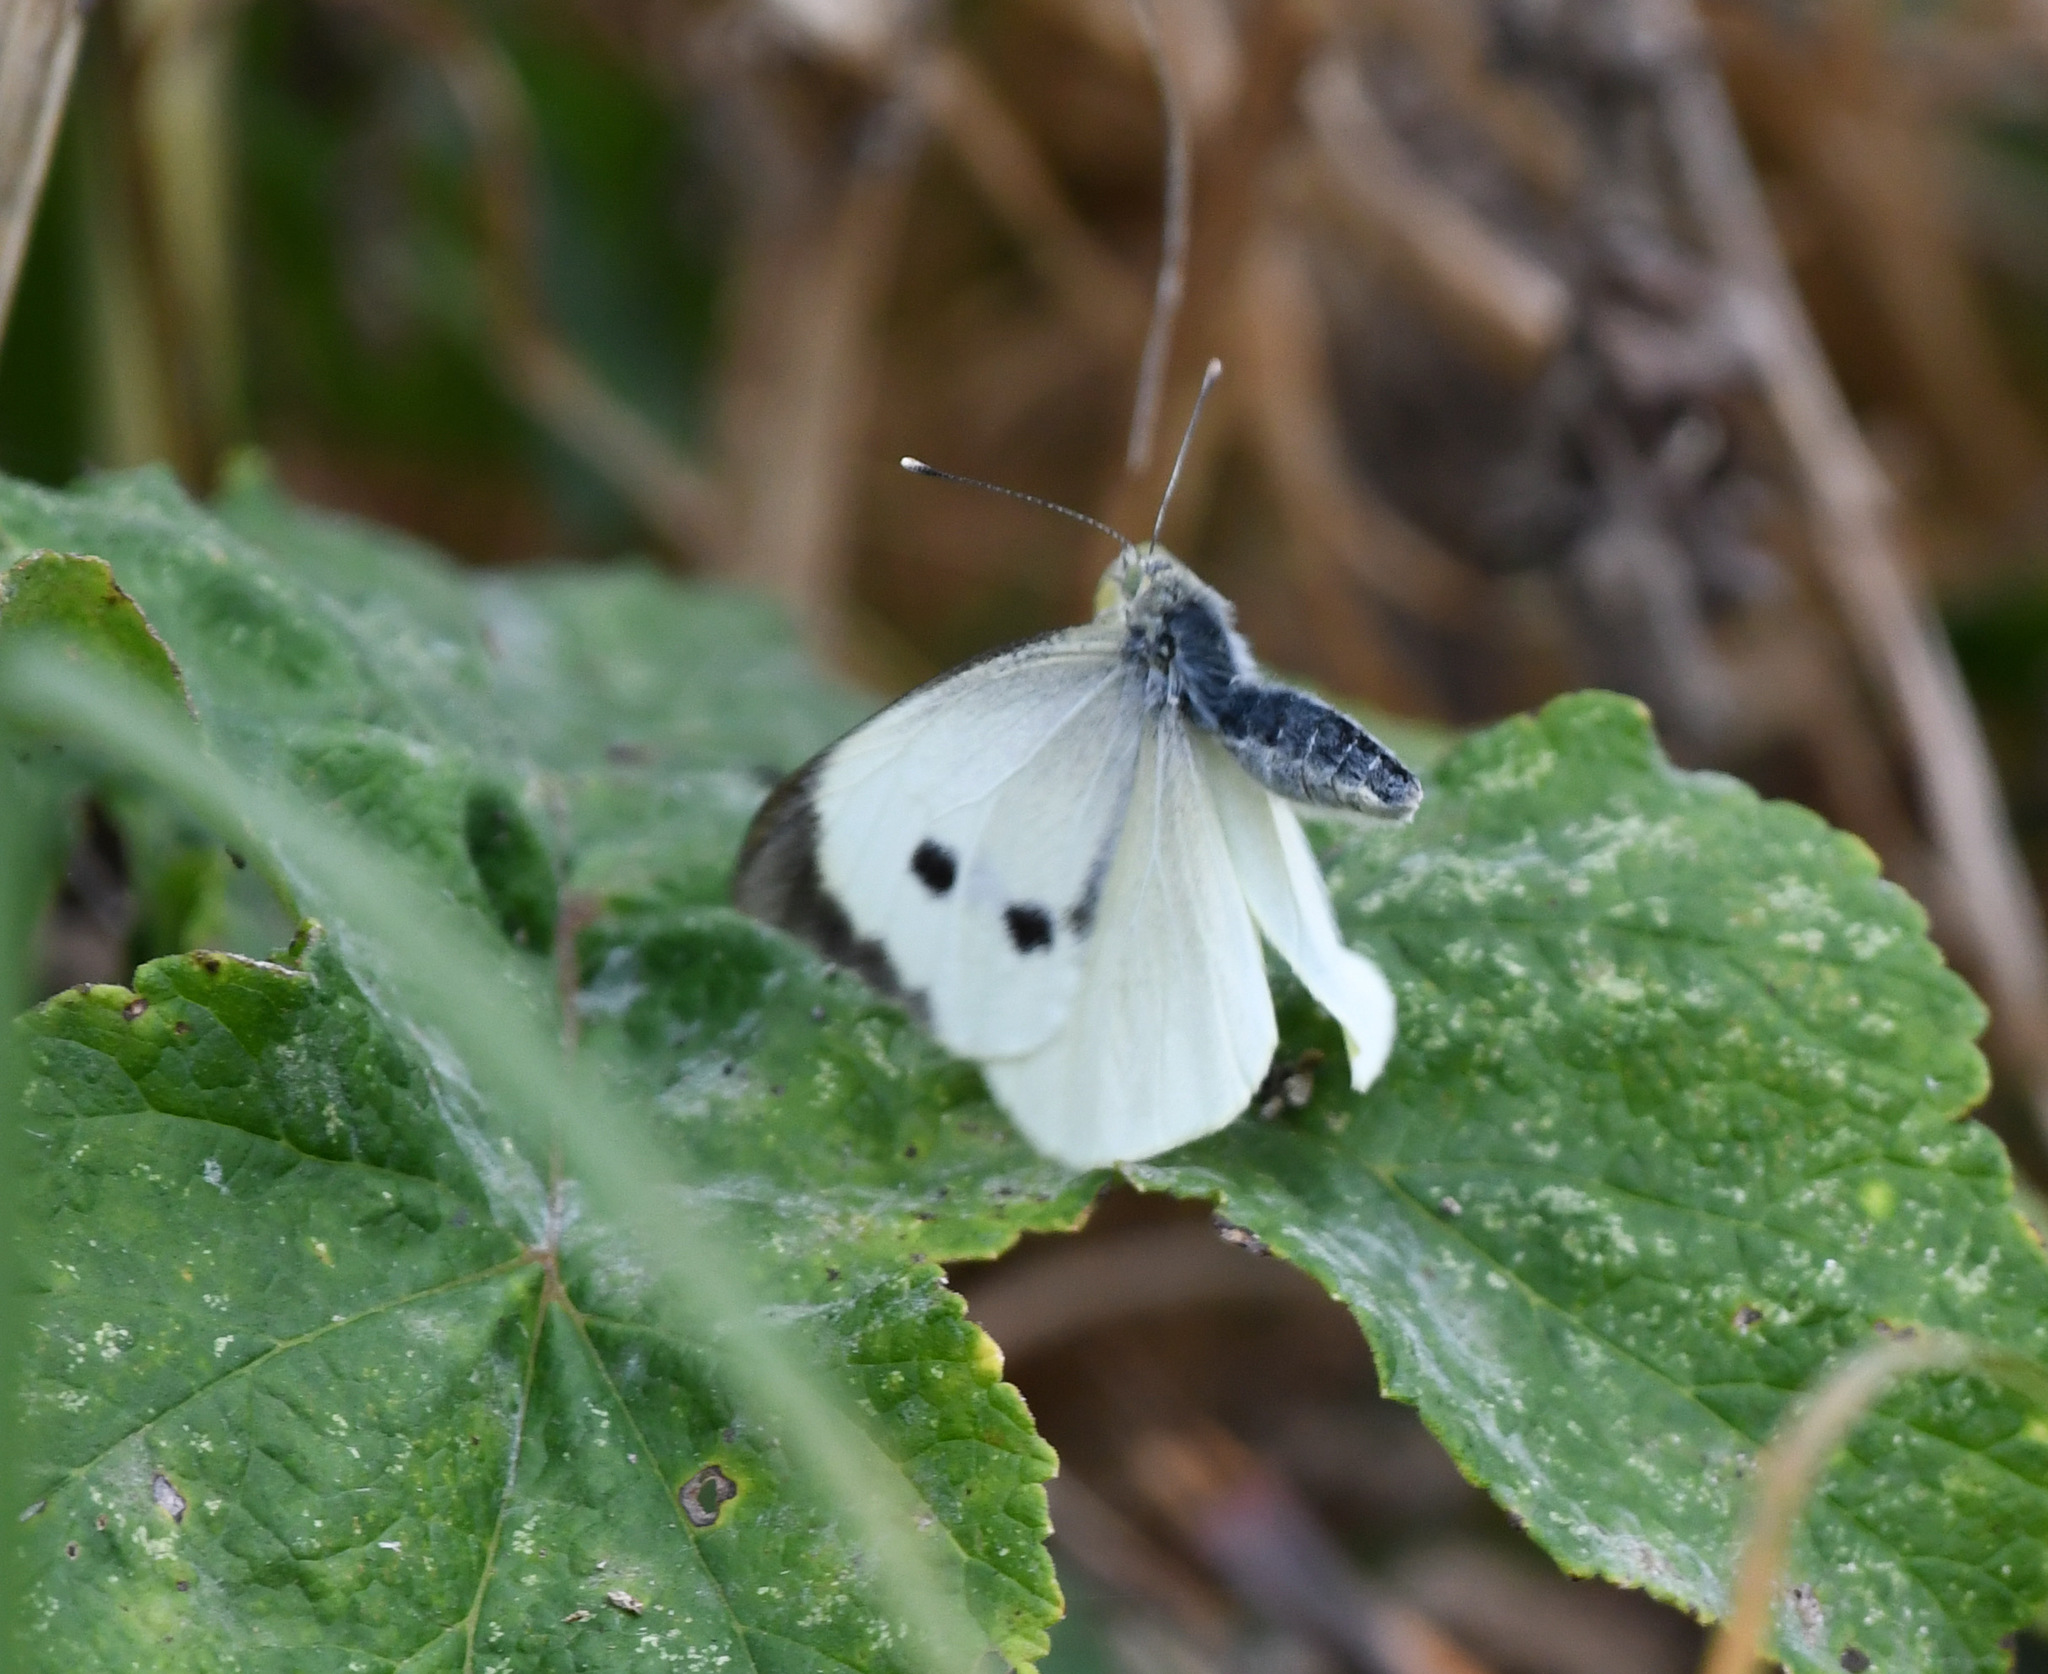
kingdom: Animalia
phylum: Arthropoda
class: Insecta
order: Lepidoptera
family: Pieridae
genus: Pieris
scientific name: Pieris brassicae
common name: Large white
